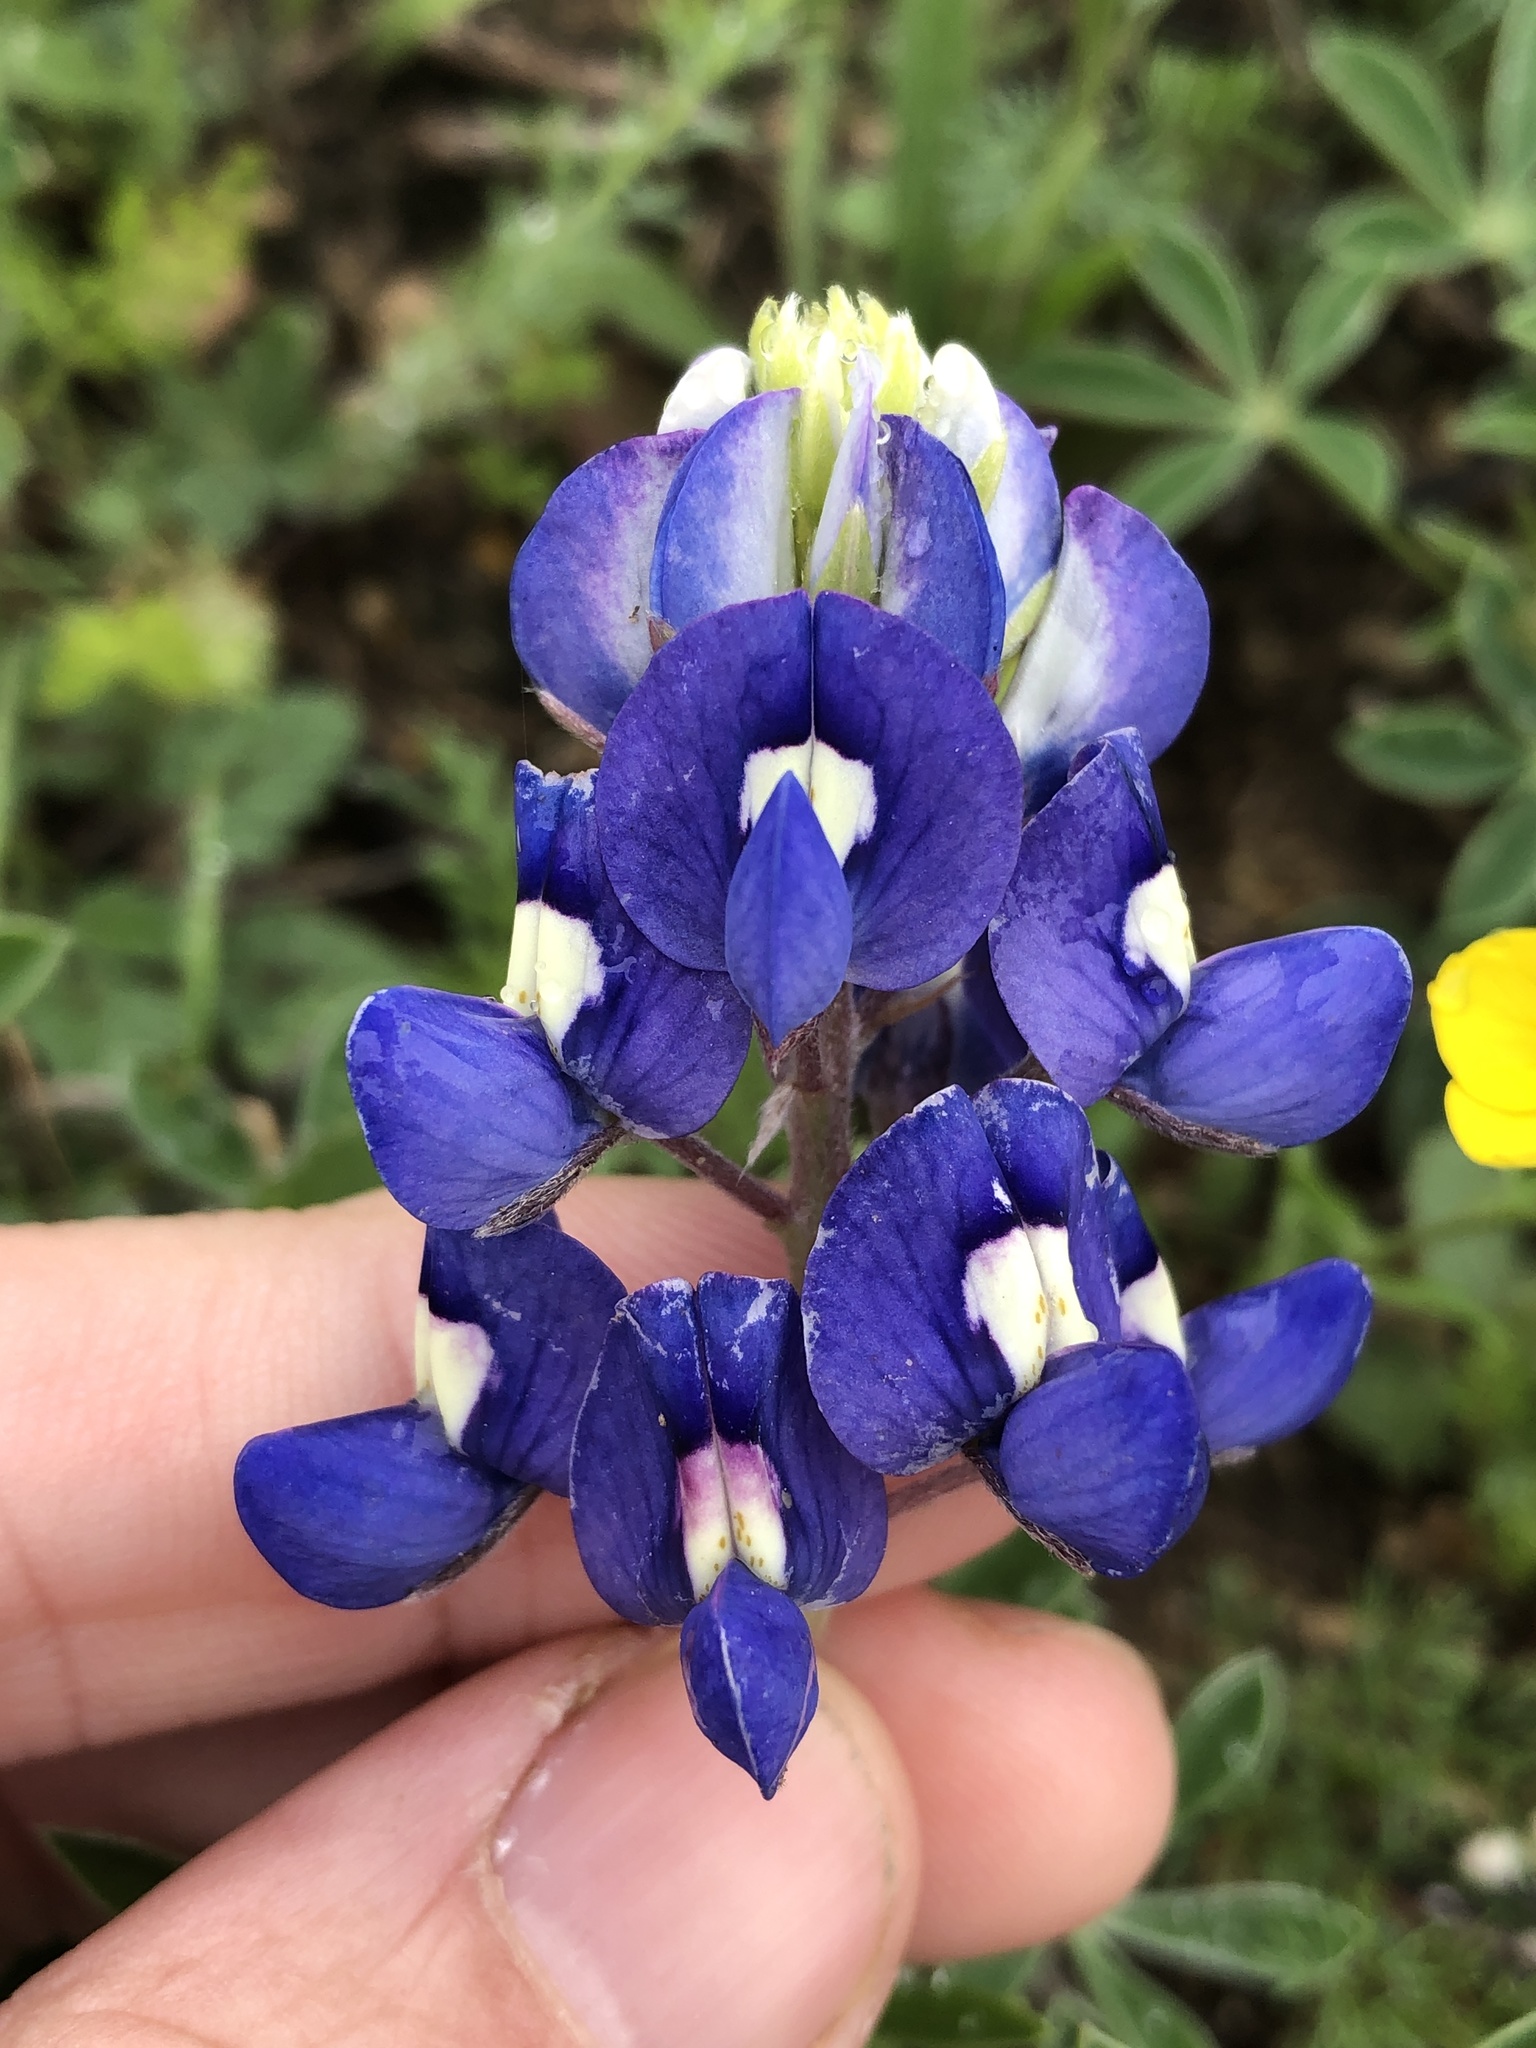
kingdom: Plantae
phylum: Tracheophyta
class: Magnoliopsida
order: Fabales
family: Fabaceae
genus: Lupinus
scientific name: Lupinus texensis
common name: Texas bluebonnet
